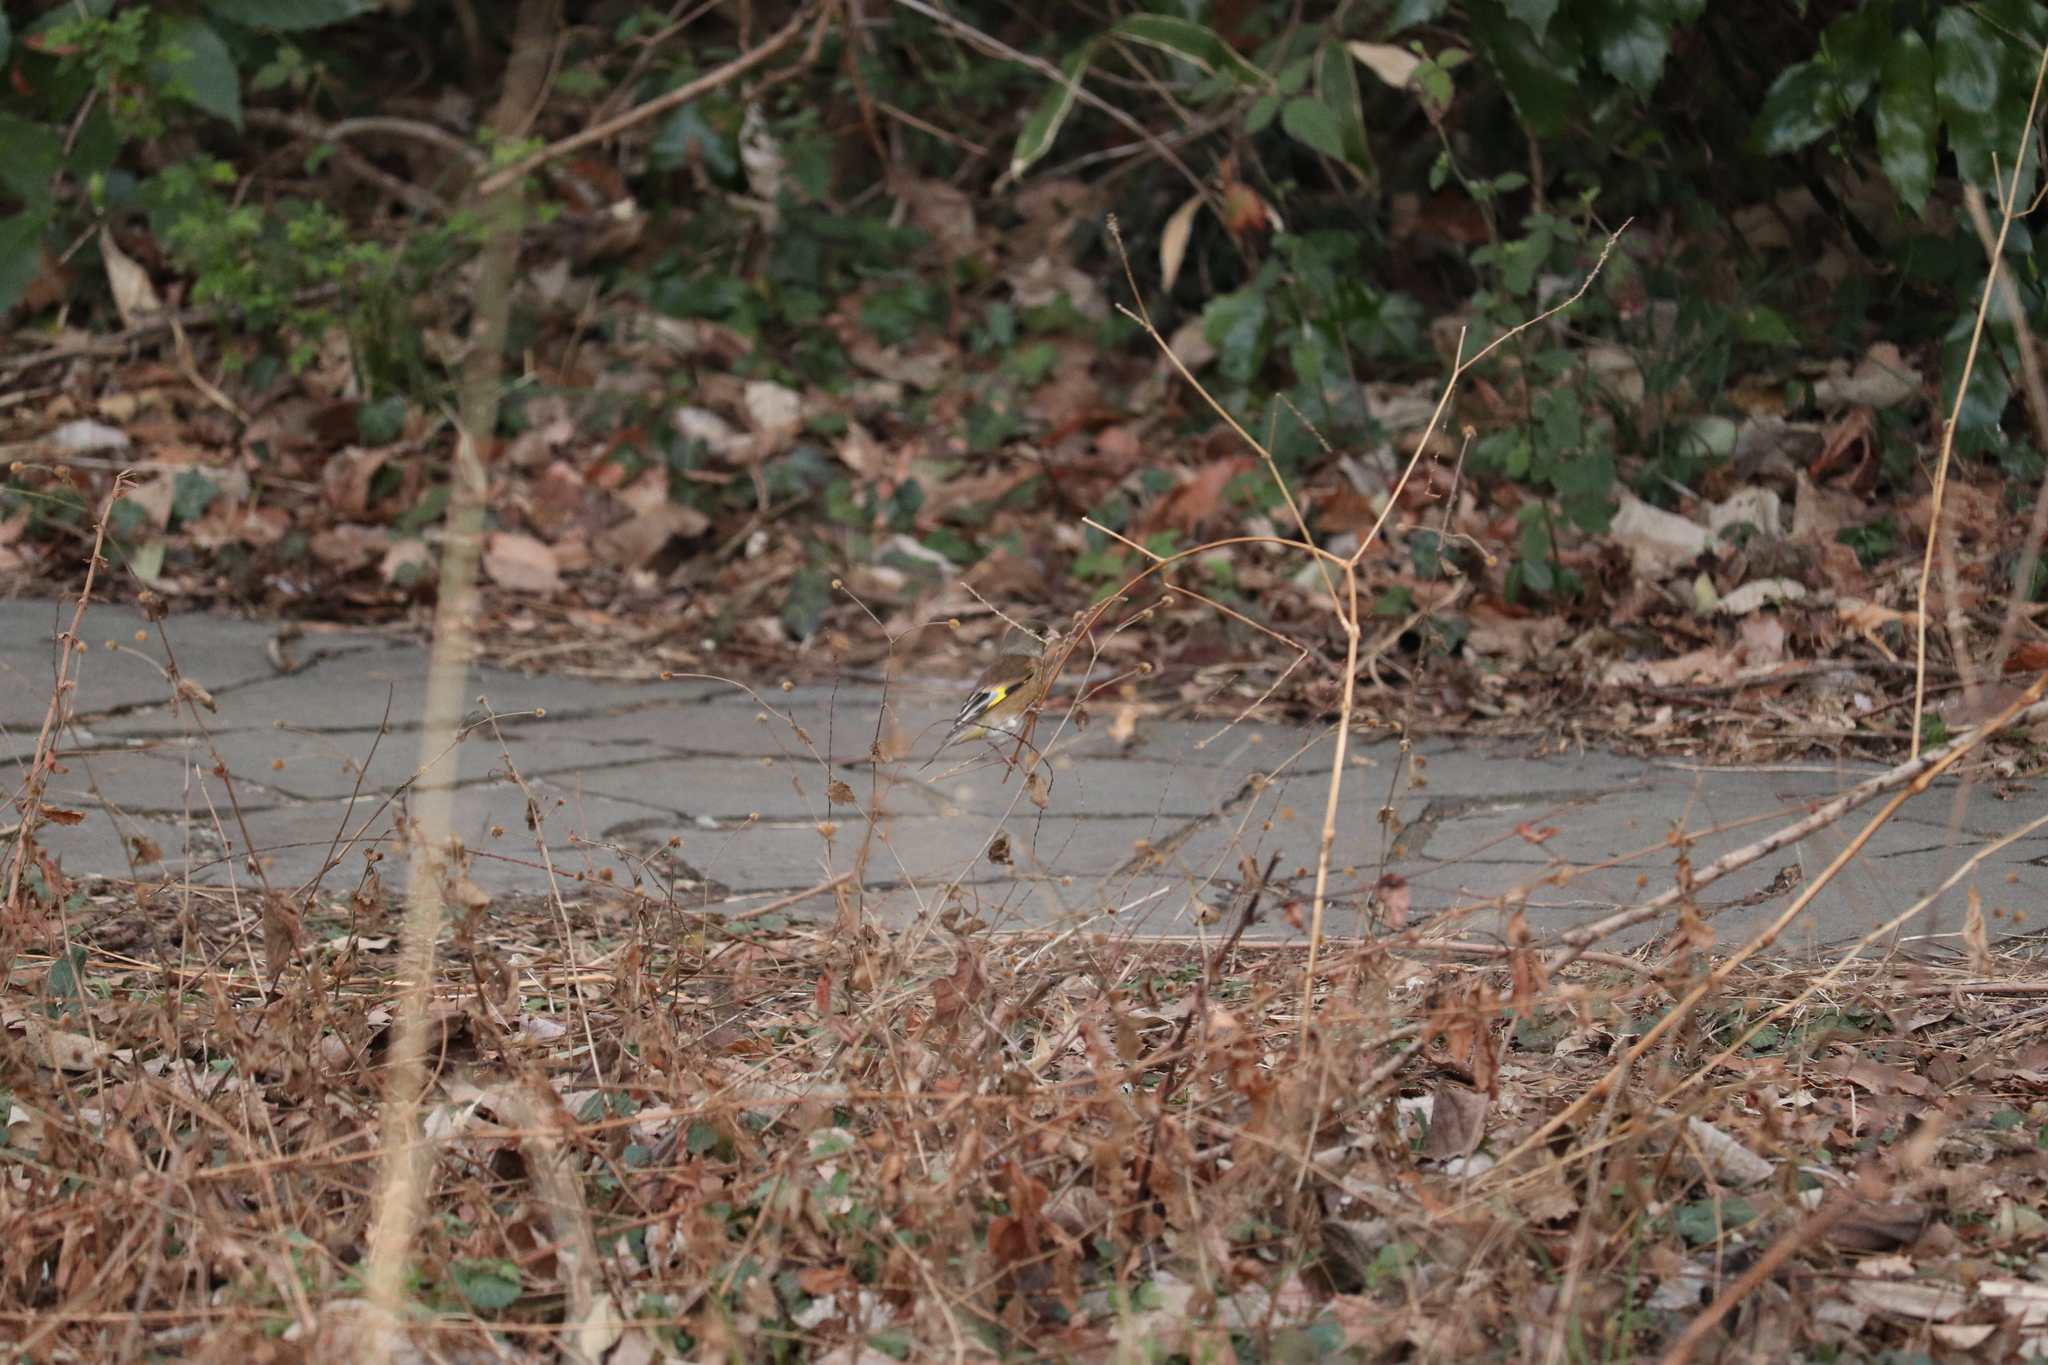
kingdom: Plantae
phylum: Tracheophyta
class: Liliopsida
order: Poales
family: Poaceae
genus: Chloris
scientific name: Chloris sinica
